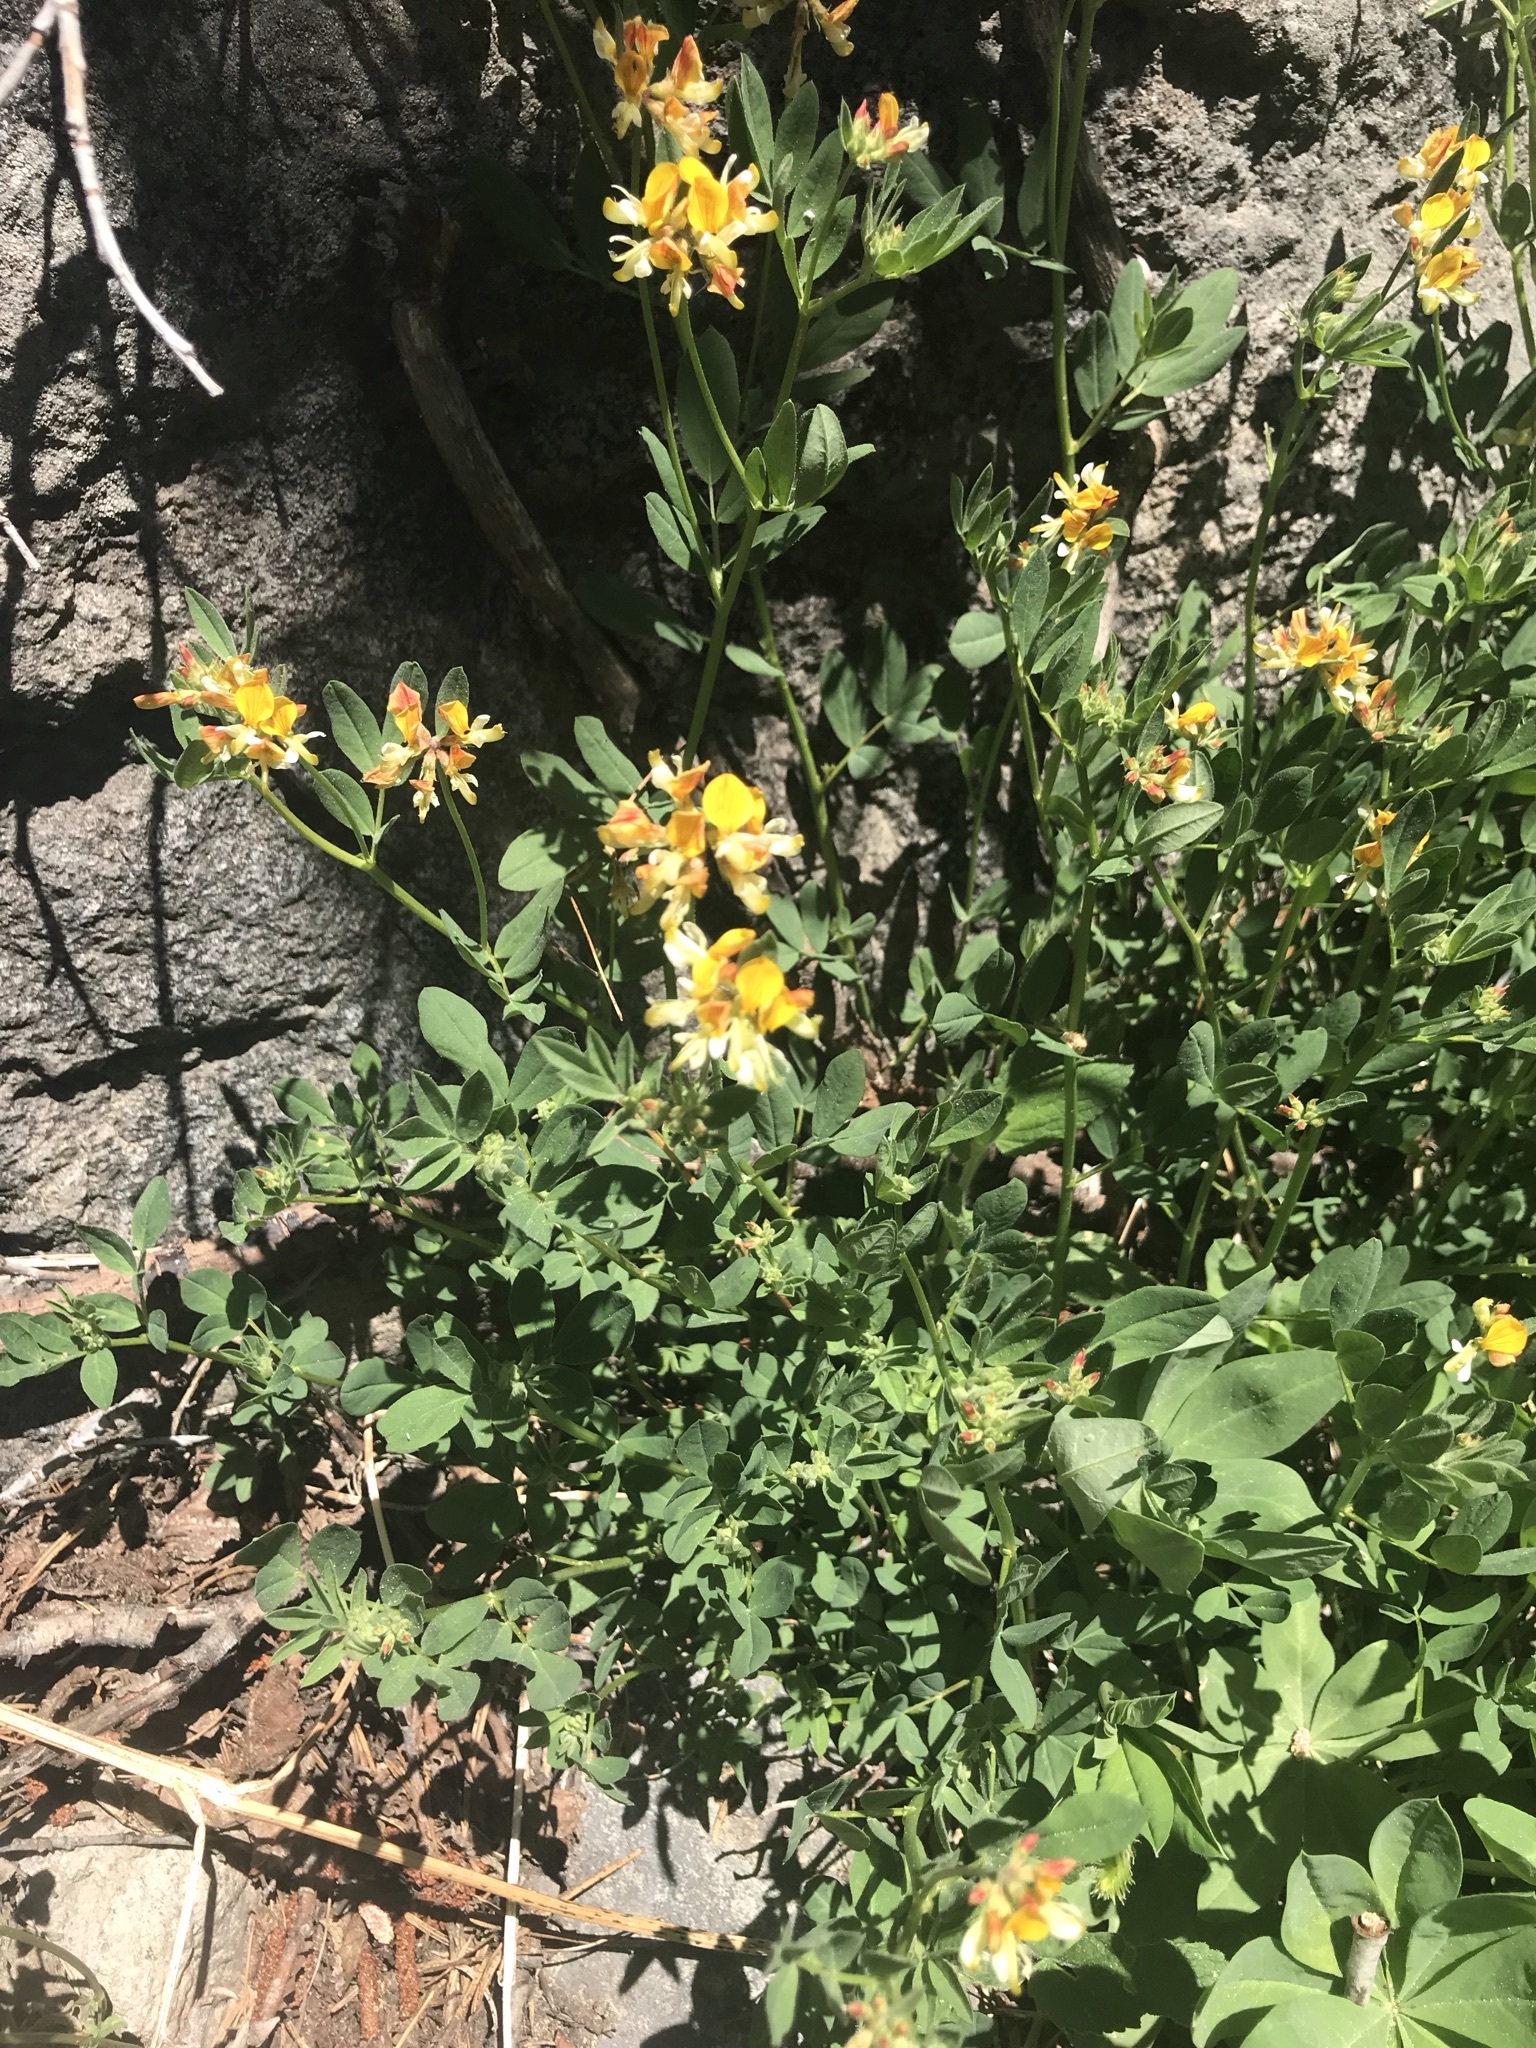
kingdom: Plantae
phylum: Tracheophyta
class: Magnoliopsida
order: Fabales
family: Fabaceae
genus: Hosackia
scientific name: Hosackia oblongifolia
